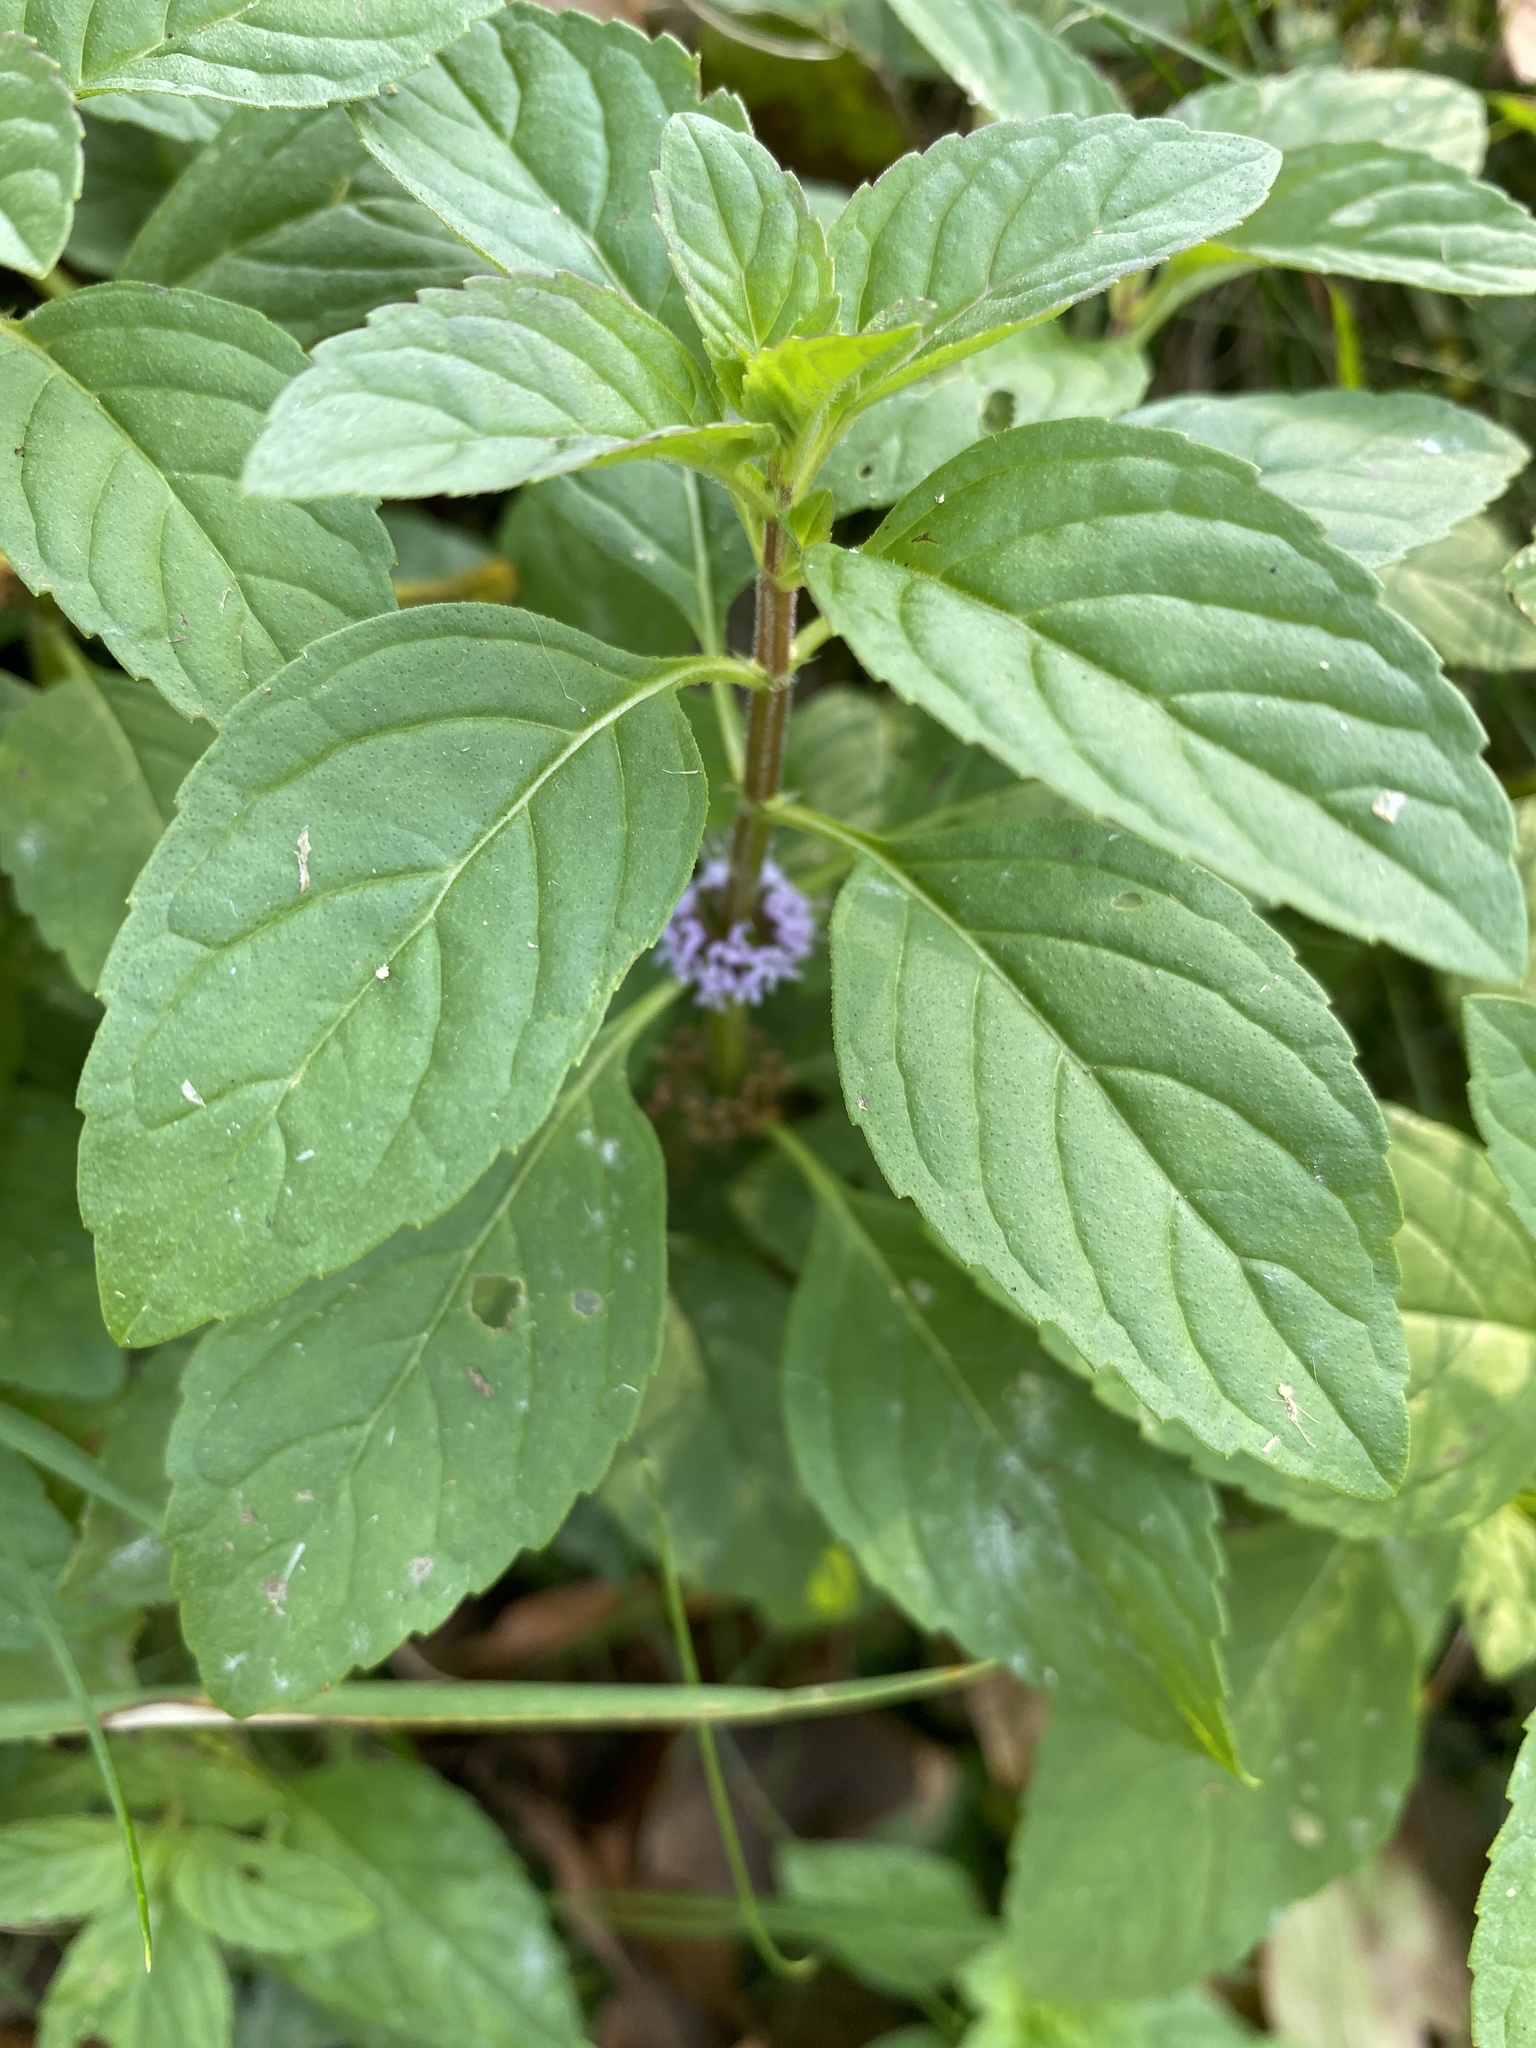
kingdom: Plantae
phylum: Tracheophyta
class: Magnoliopsida
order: Lamiales
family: Lamiaceae
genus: Mentha
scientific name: Mentha arvensis
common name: Corn mint
